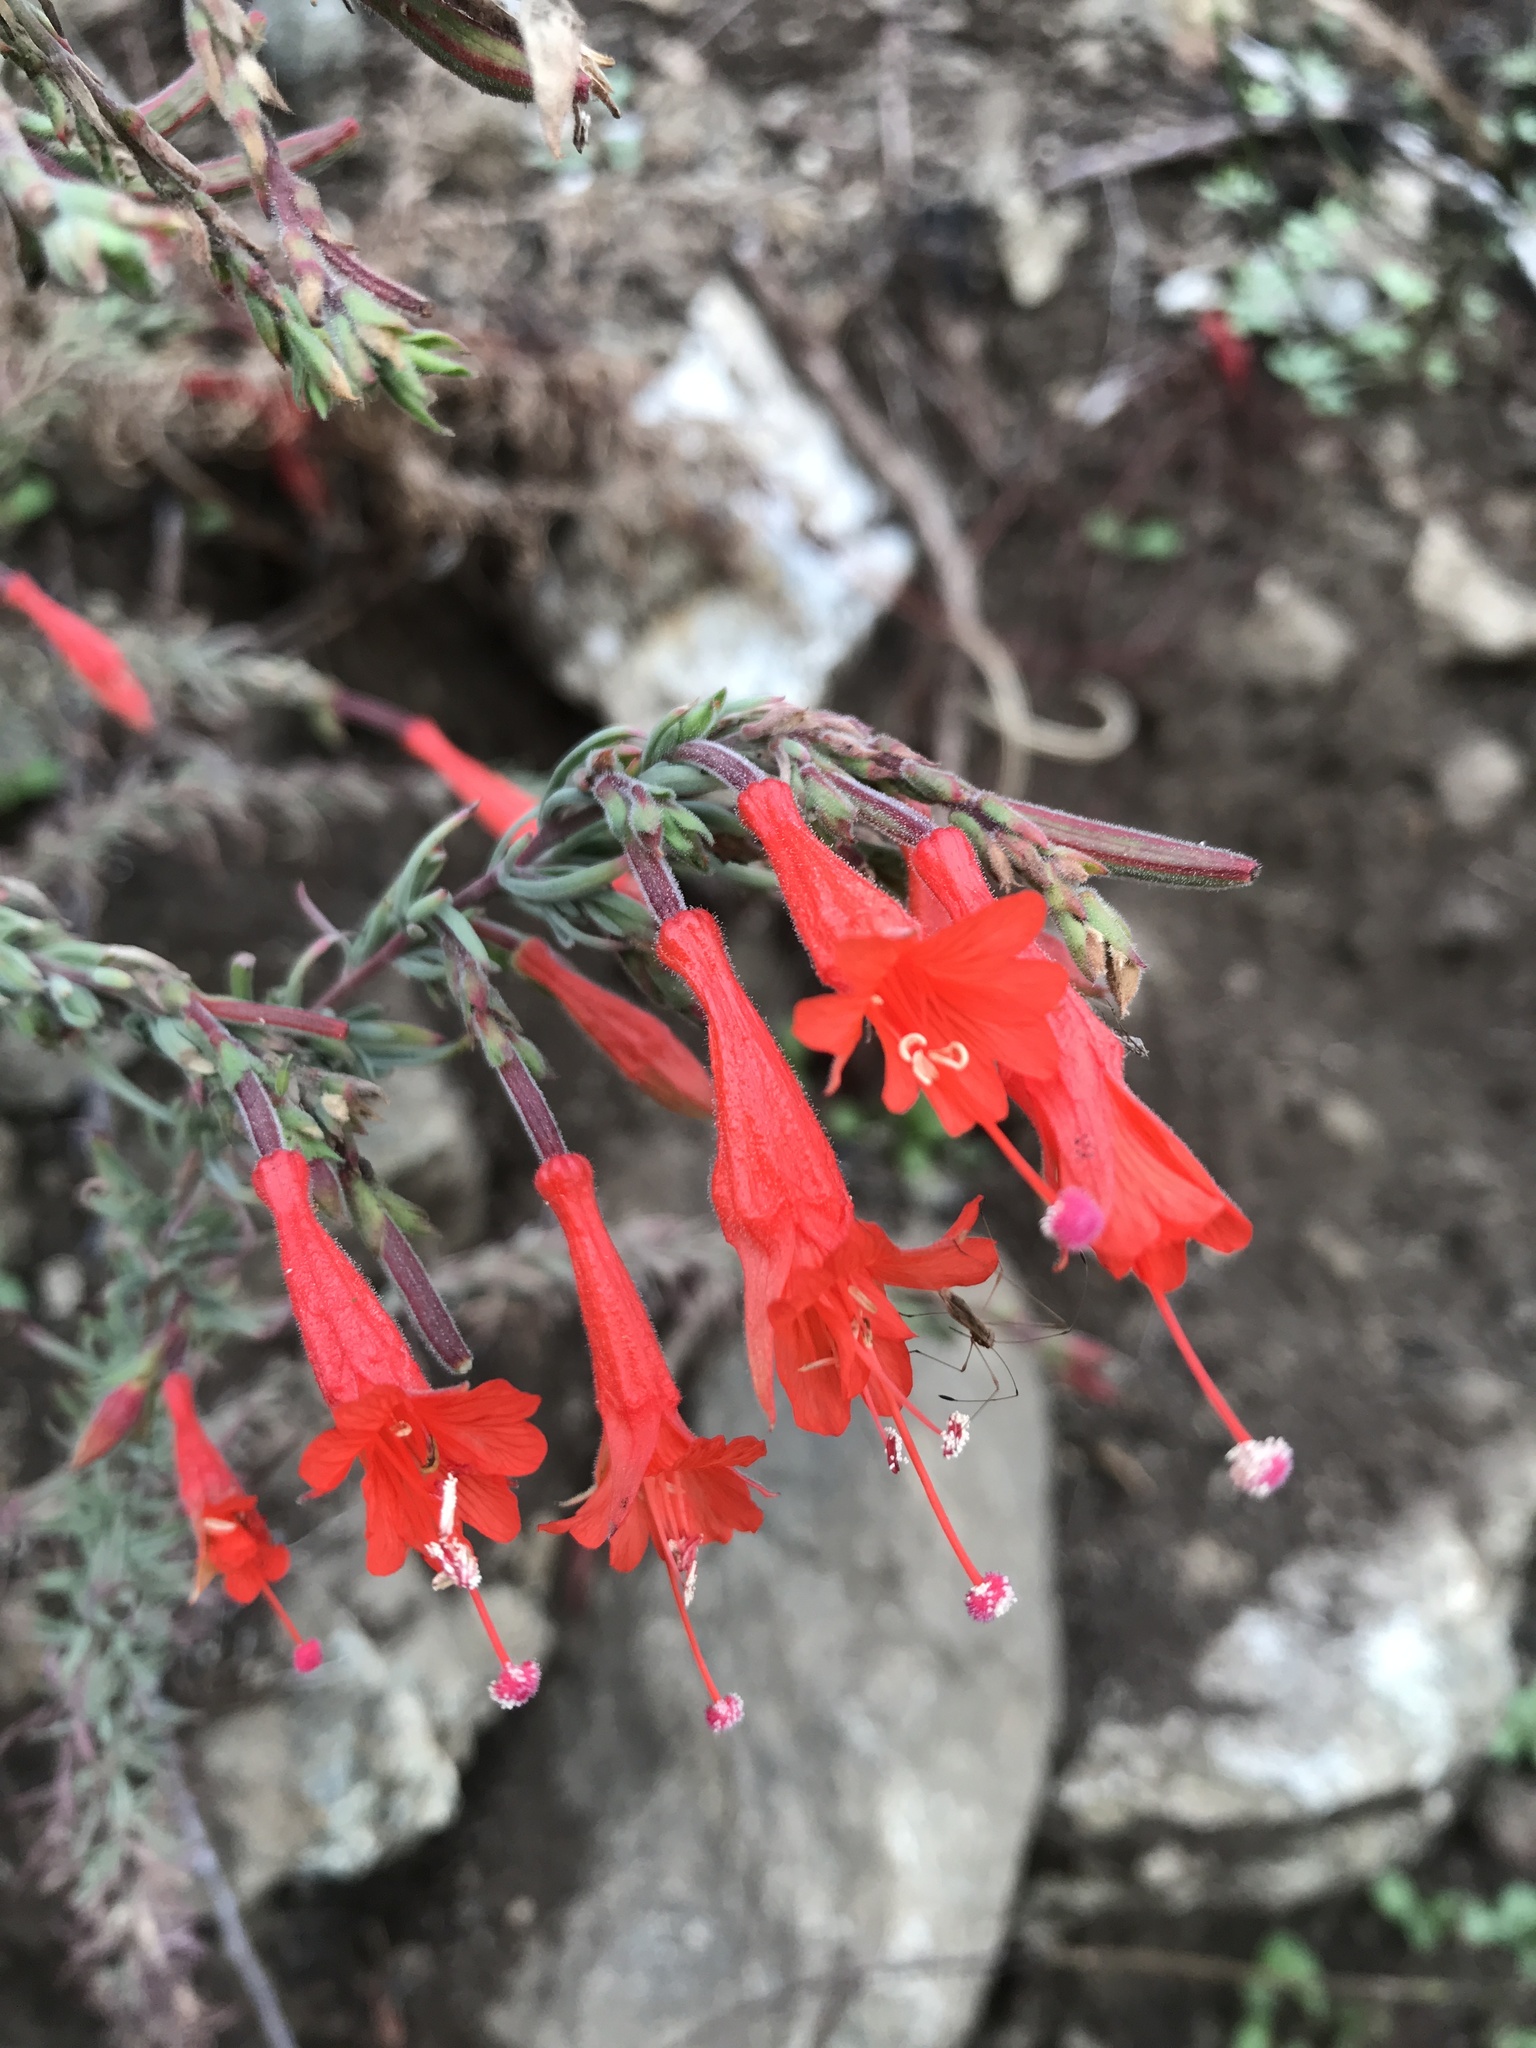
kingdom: Plantae
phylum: Tracheophyta
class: Magnoliopsida
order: Myrtales
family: Onagraceae
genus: Epilobium
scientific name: Epilobium canum
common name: California-fuchsia
